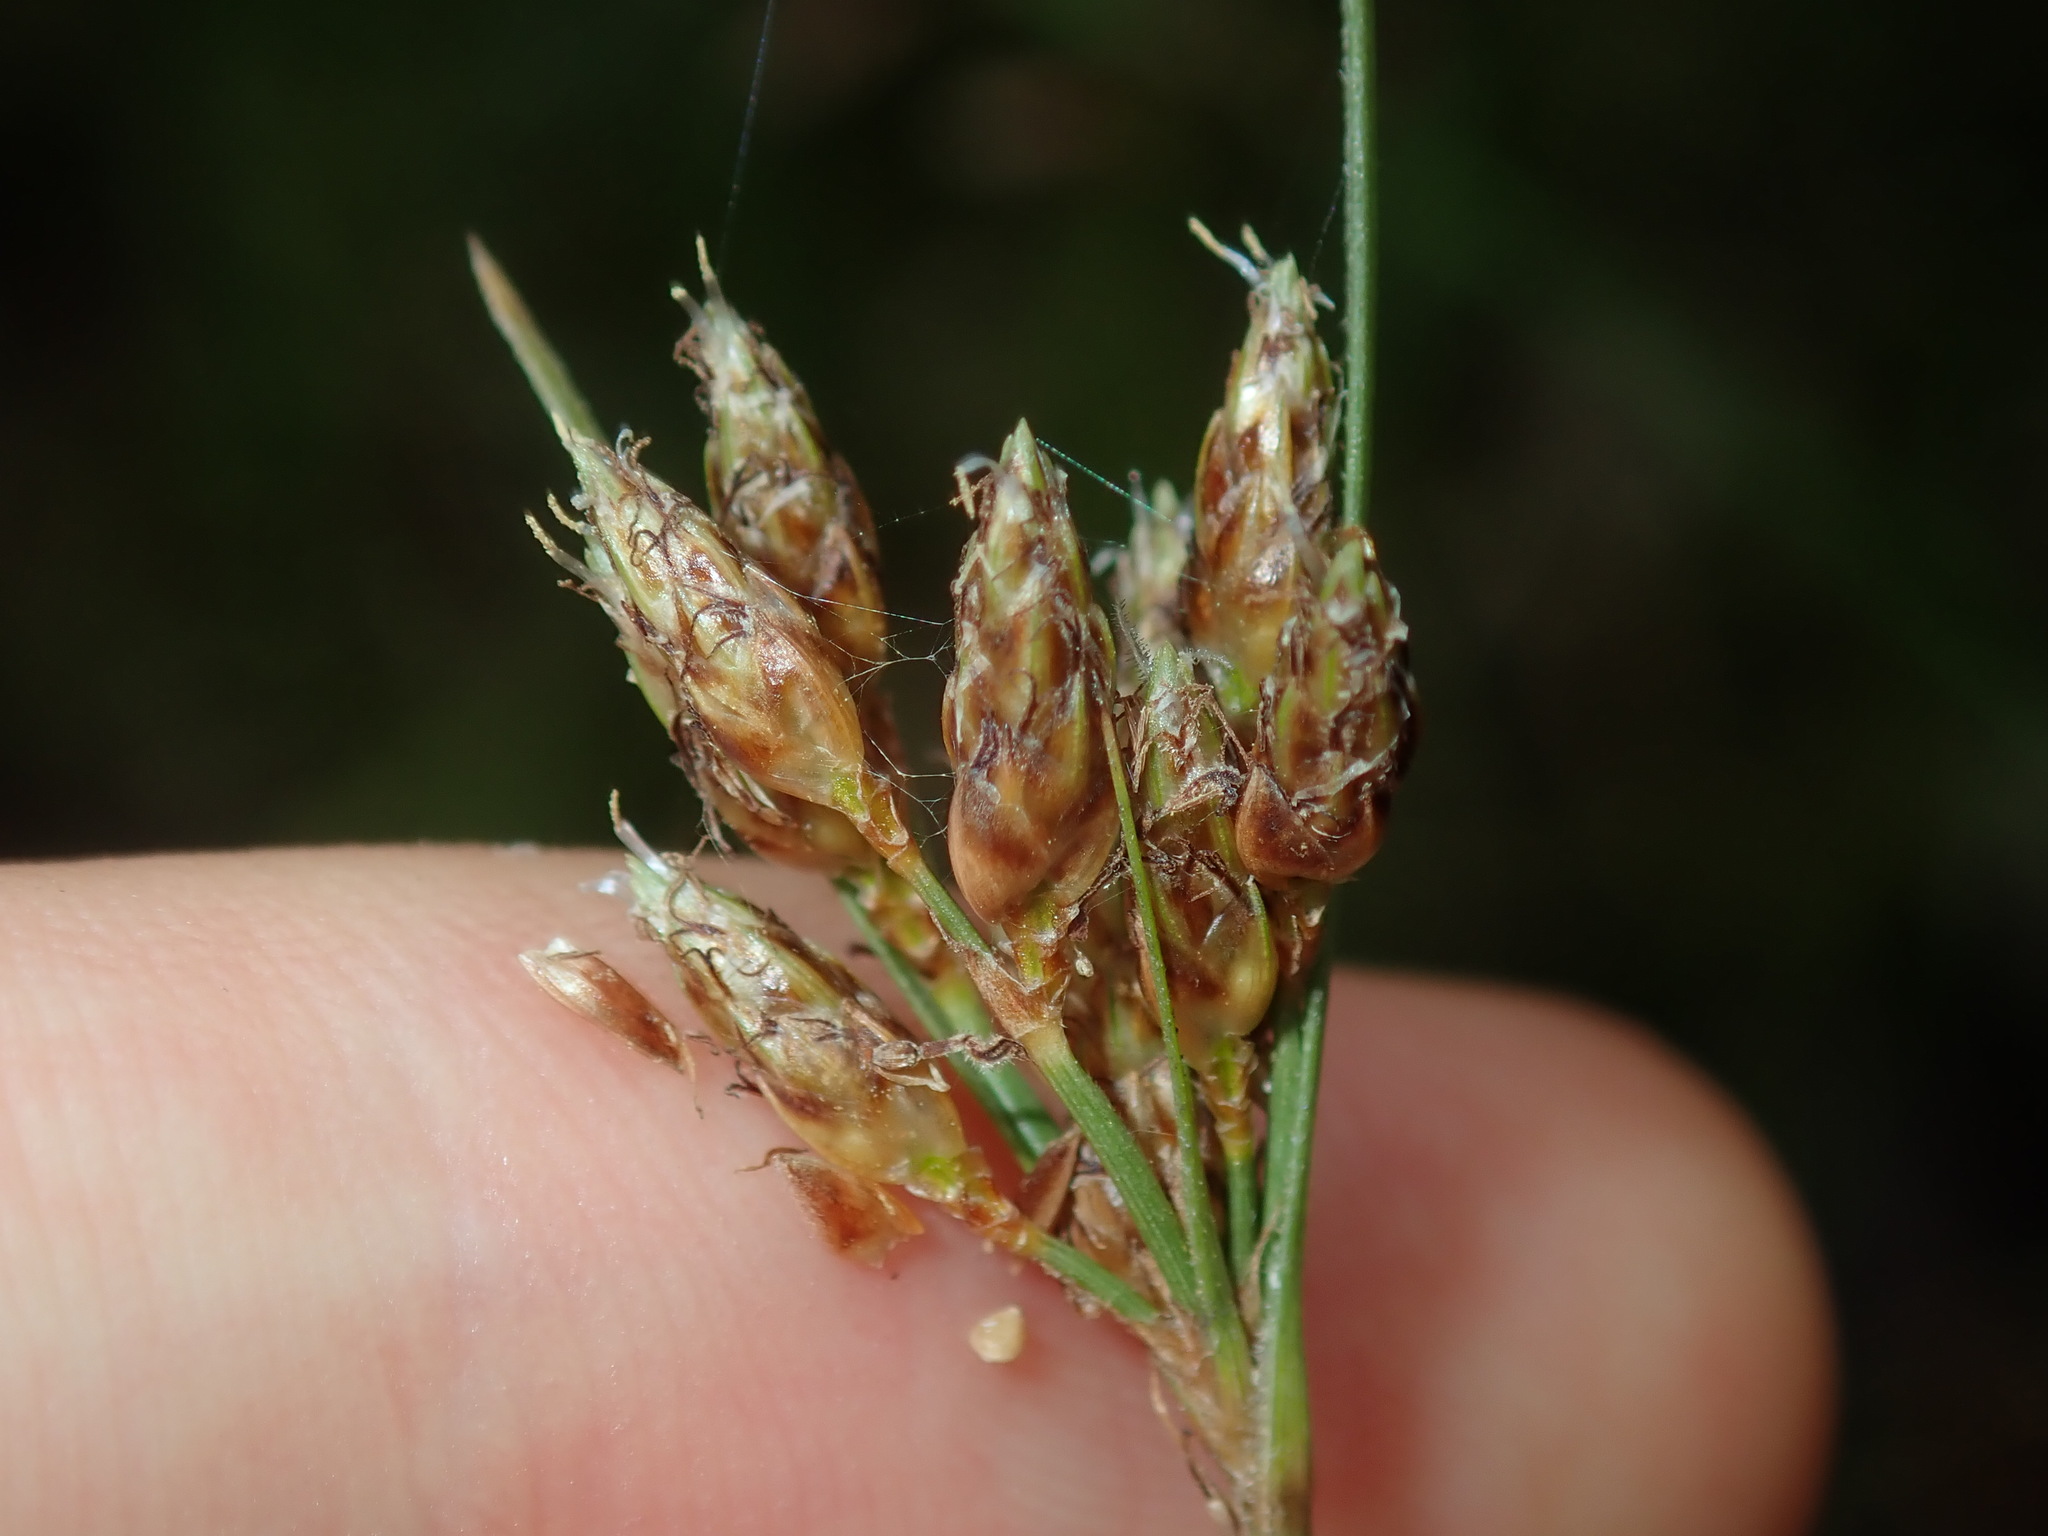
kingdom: Plantae
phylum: Tracheophyta
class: Liliopsida
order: Poales
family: Cyperaceae
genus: Fimbristylis
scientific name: Fimbristylis ferruginea
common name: West indian fimbry
